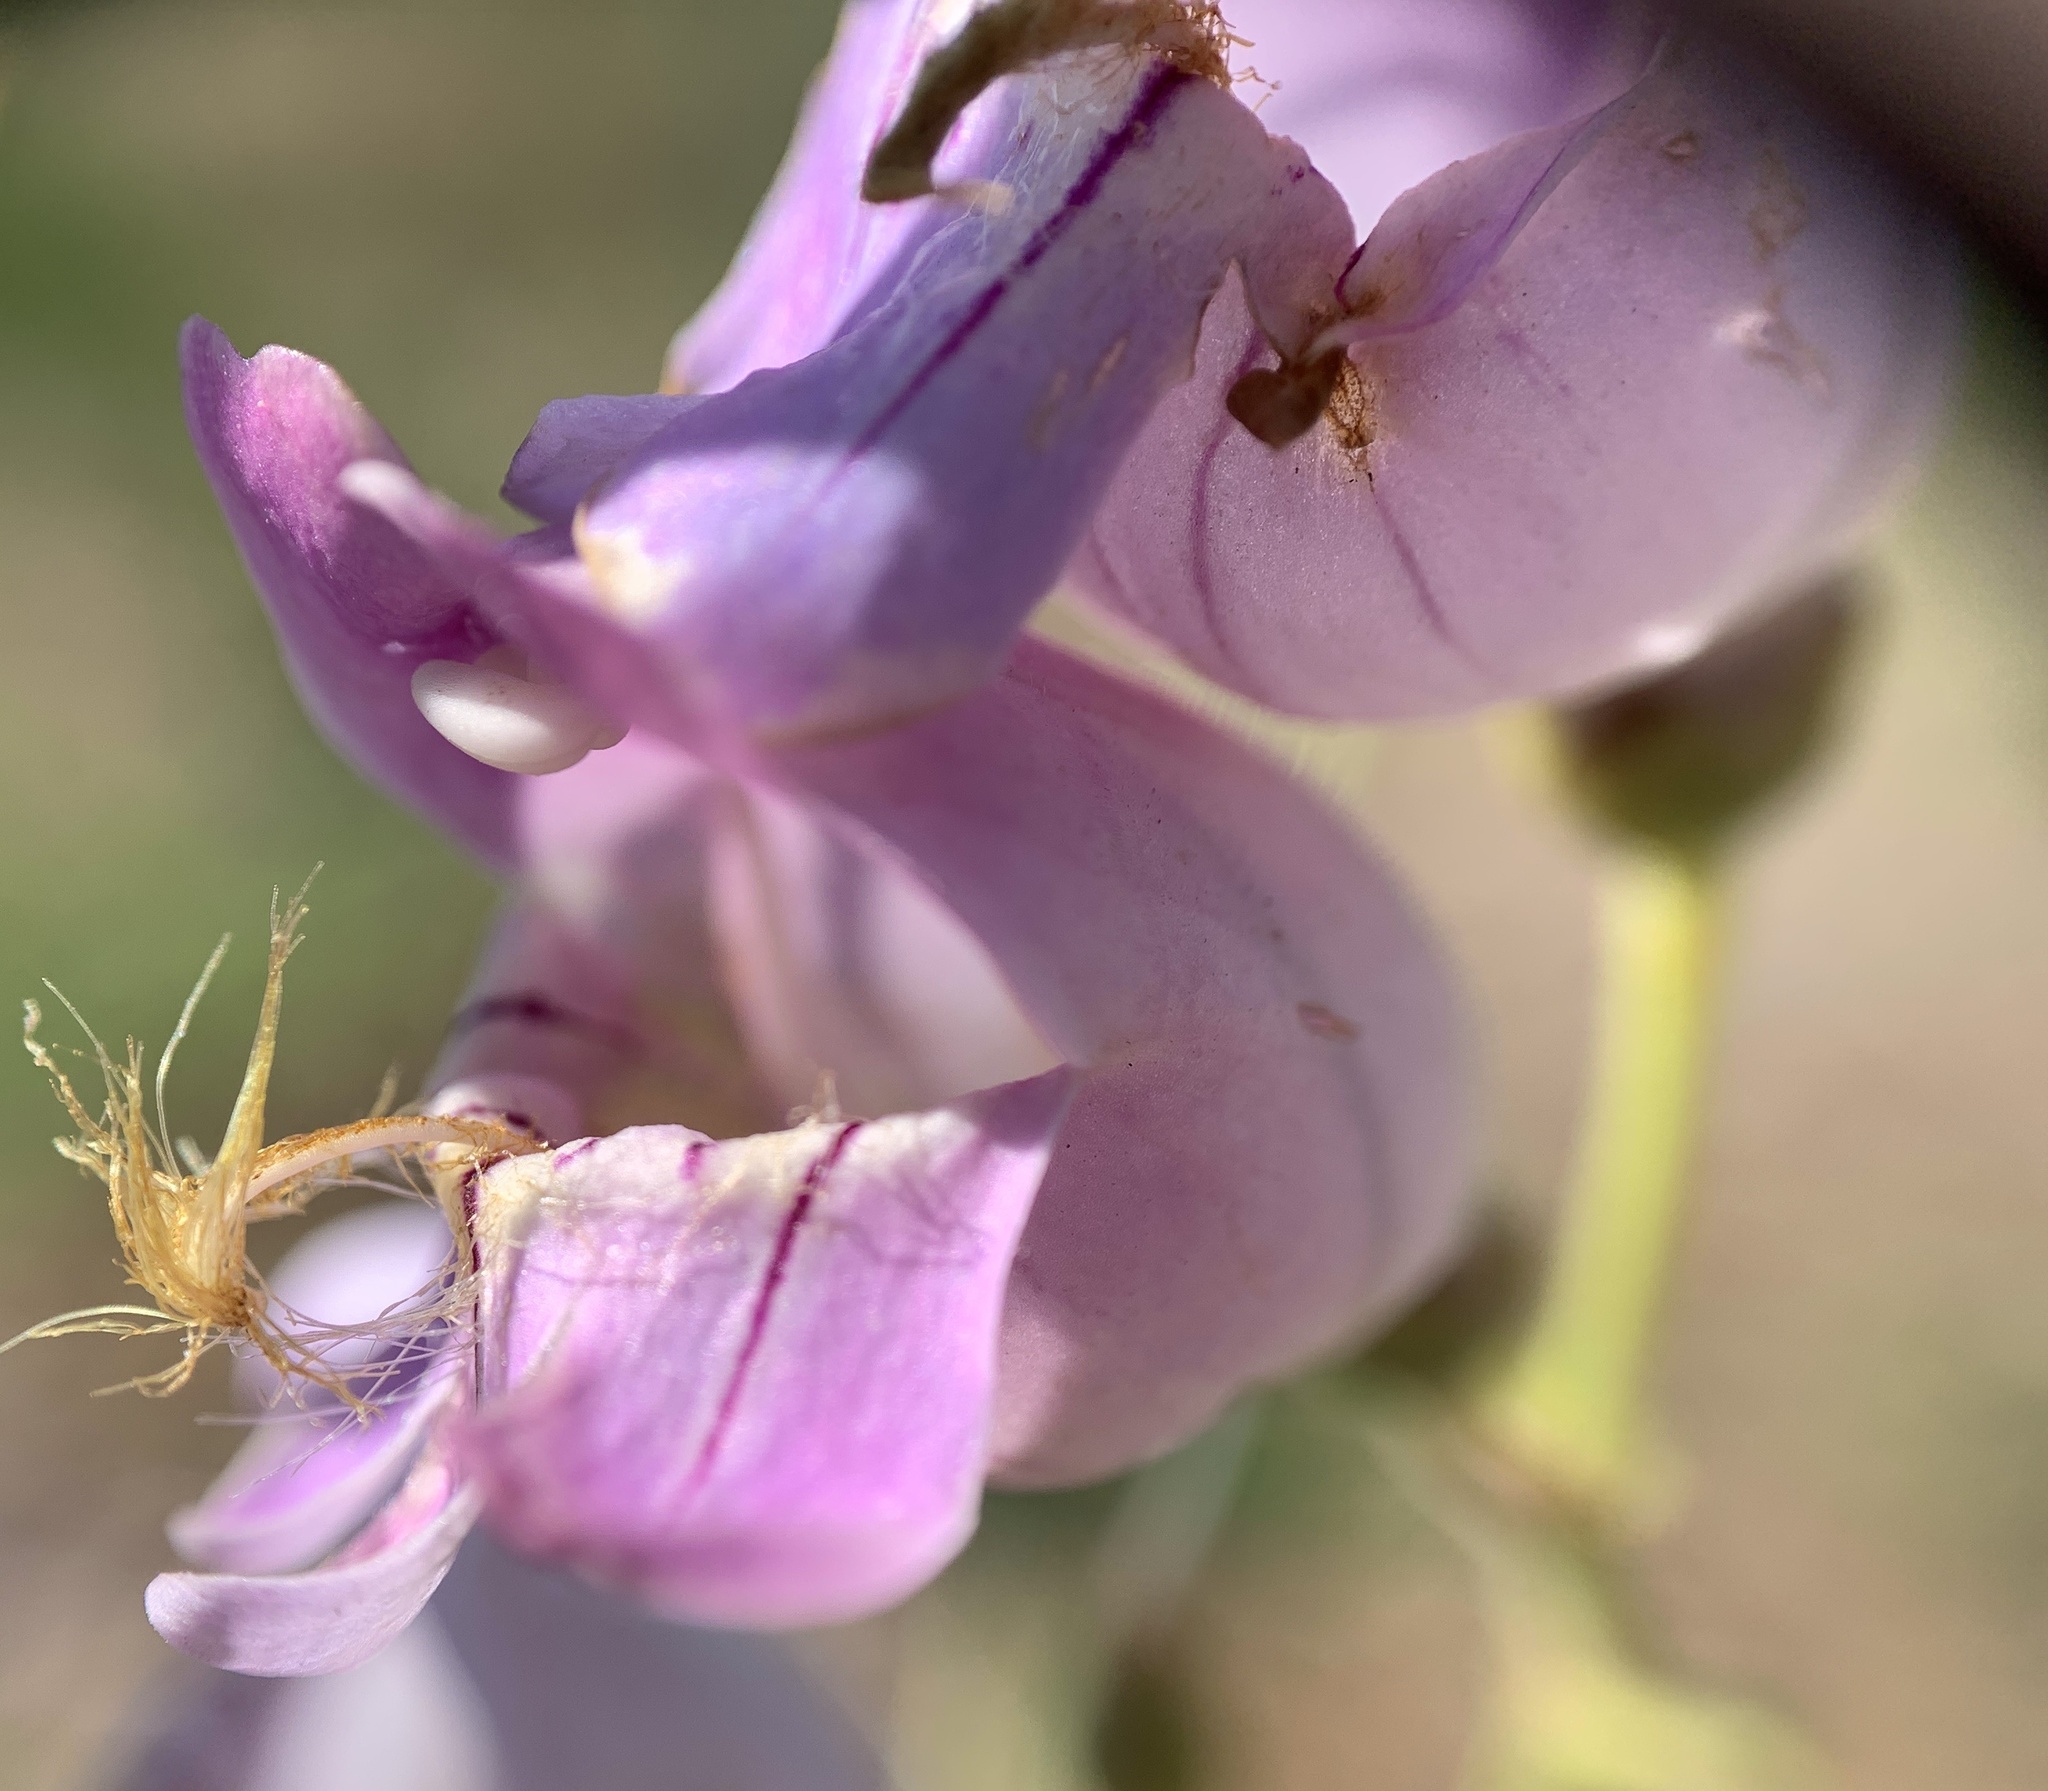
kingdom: Plantae
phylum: Tracheophyta
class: Magnoliopsida
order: Lamiales
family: Plantaginaceae
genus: Penstemon
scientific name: Penstemon palmeri
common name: Palmer penstemon
